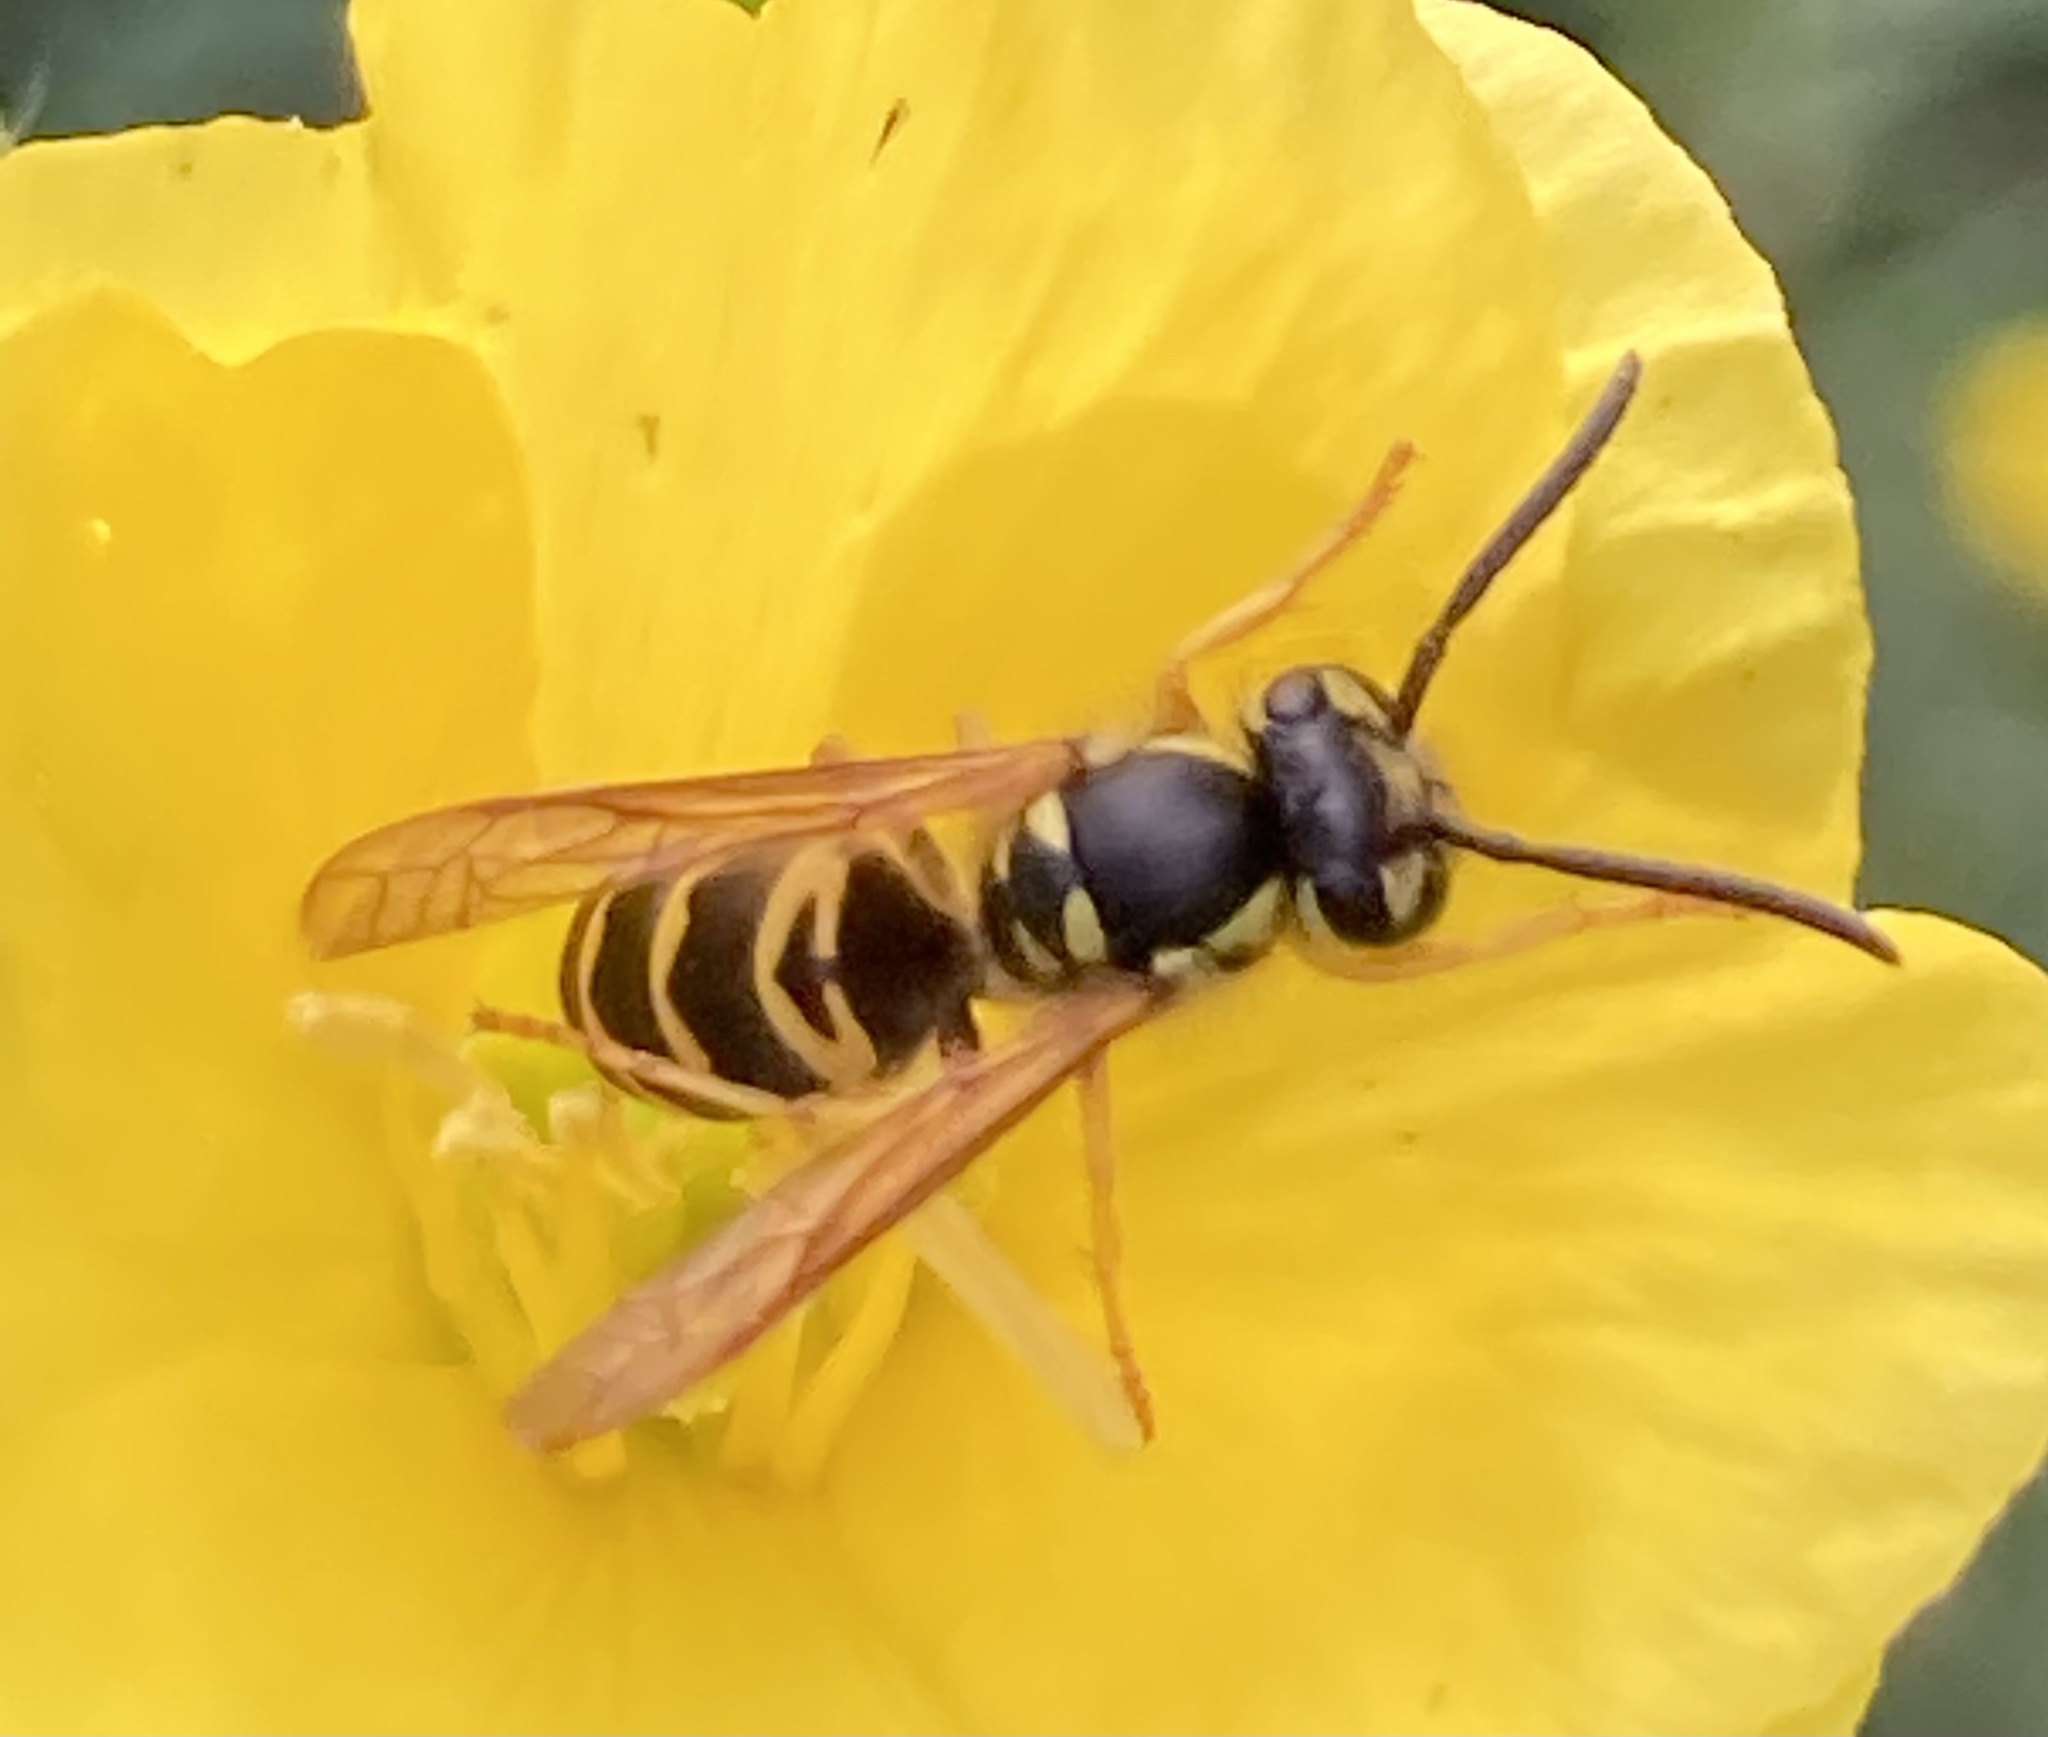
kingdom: Animalia
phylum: Arthropoda
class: Insecta
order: Hymenoptera
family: Vespidae
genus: Vespula
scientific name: Vespula maculifrons
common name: Eastern yellowjacket
